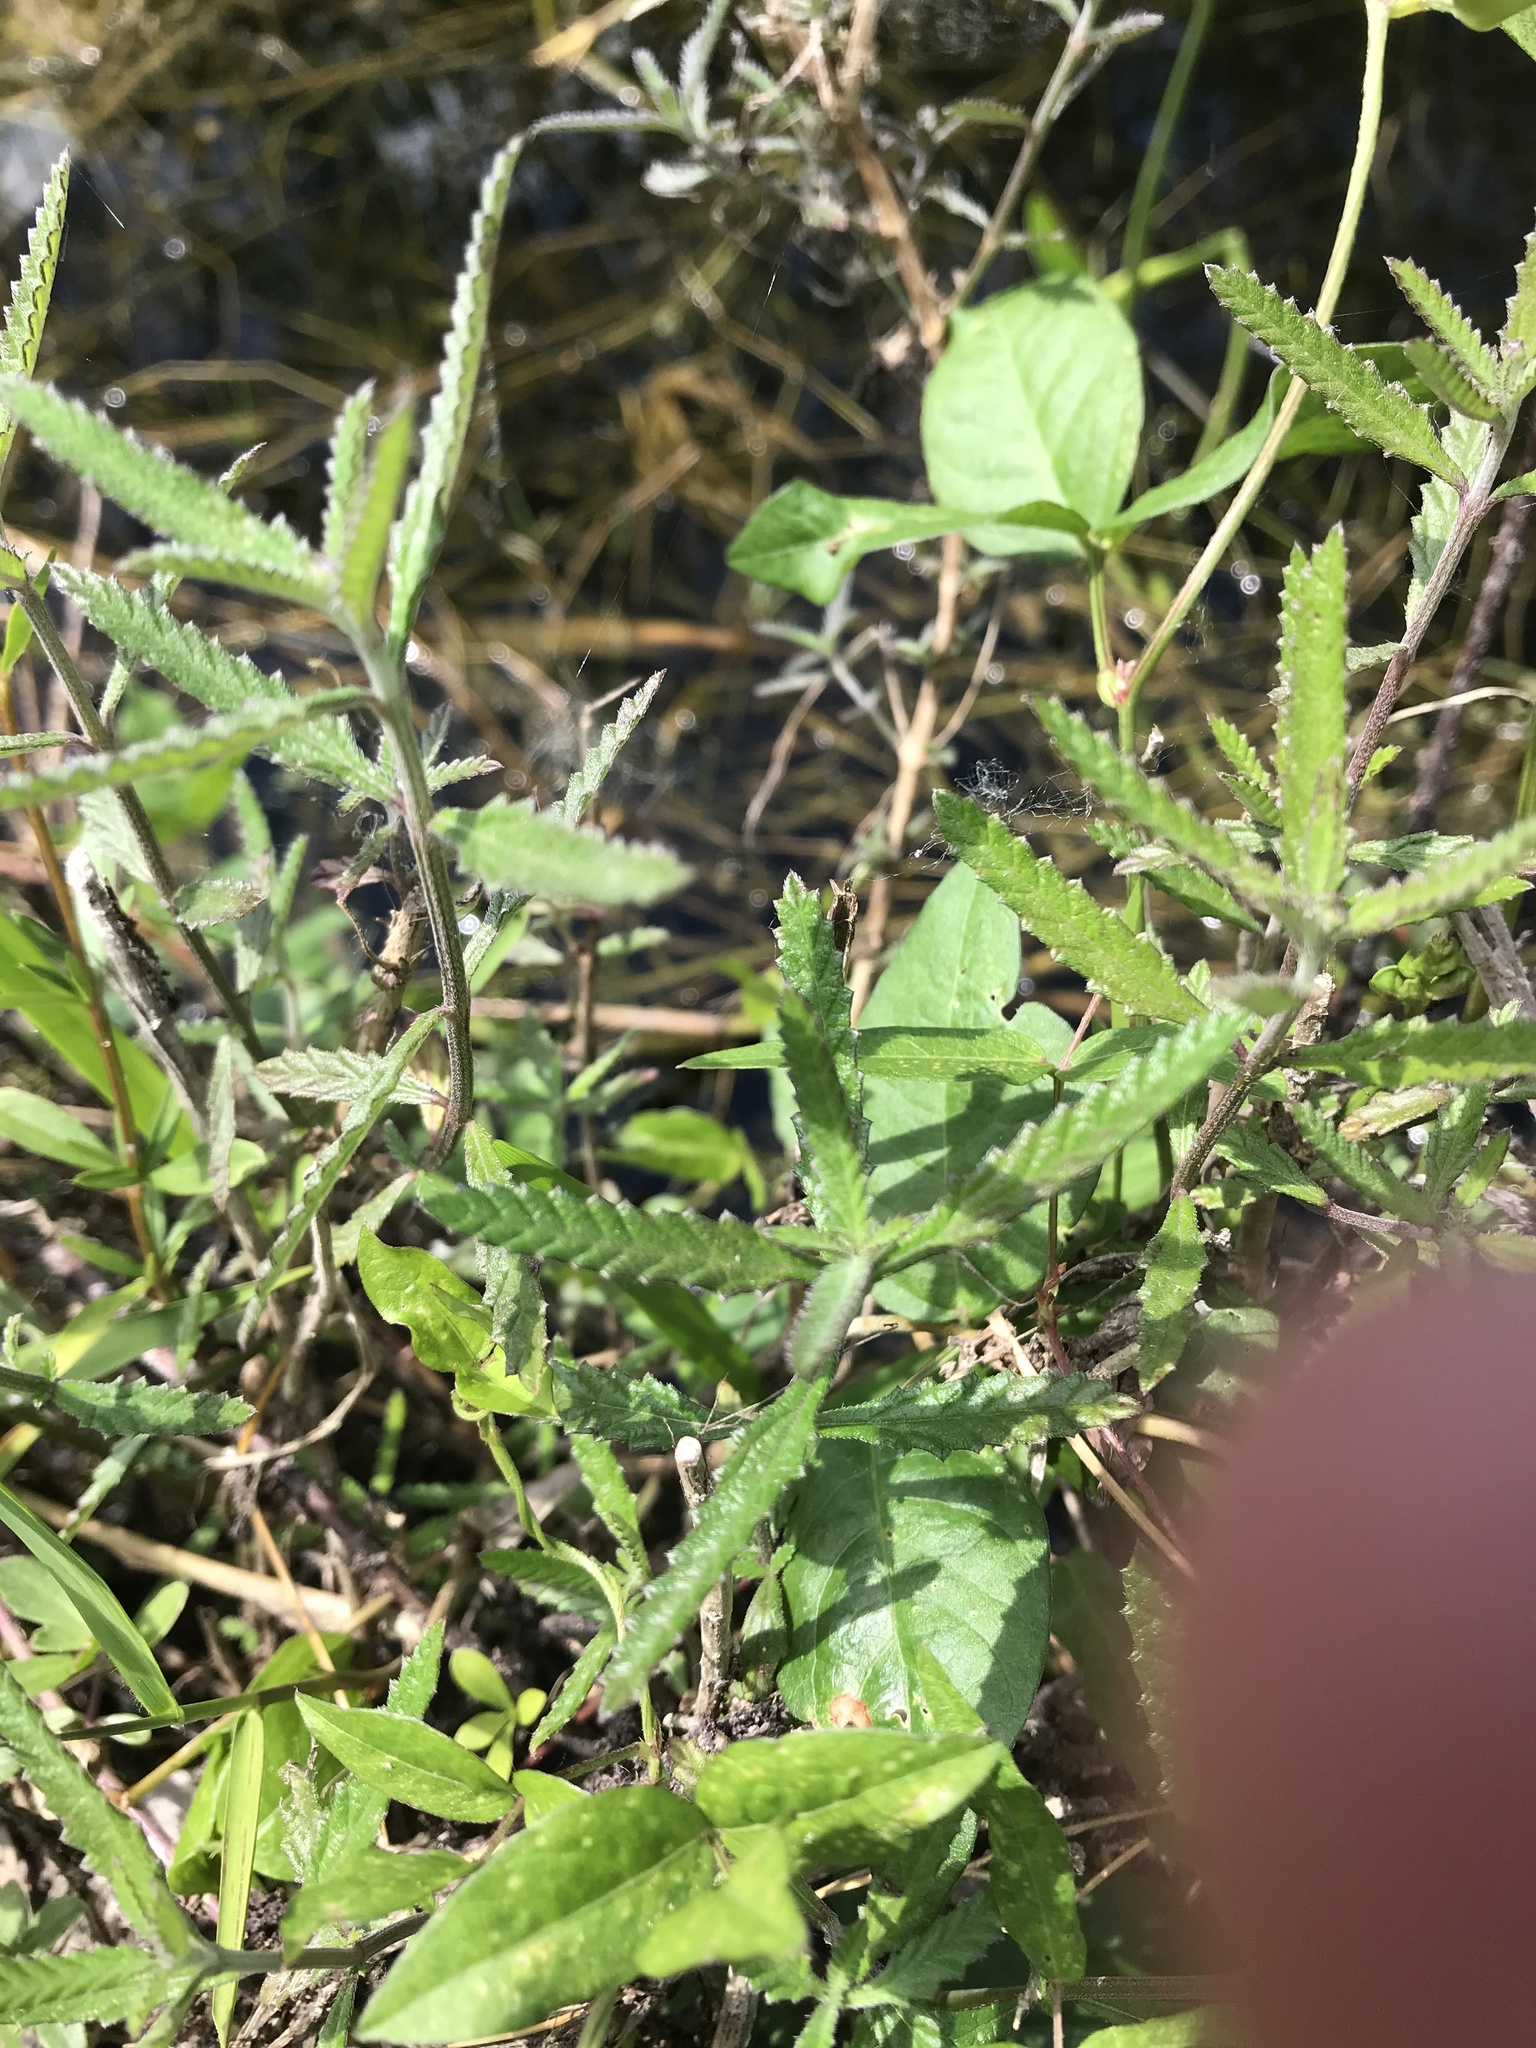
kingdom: Plantae
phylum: Tracheophyta
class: Magnoliopsida
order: Lamiales
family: Verbenaceae
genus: Lippia
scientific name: Lippia stoechadifolia
